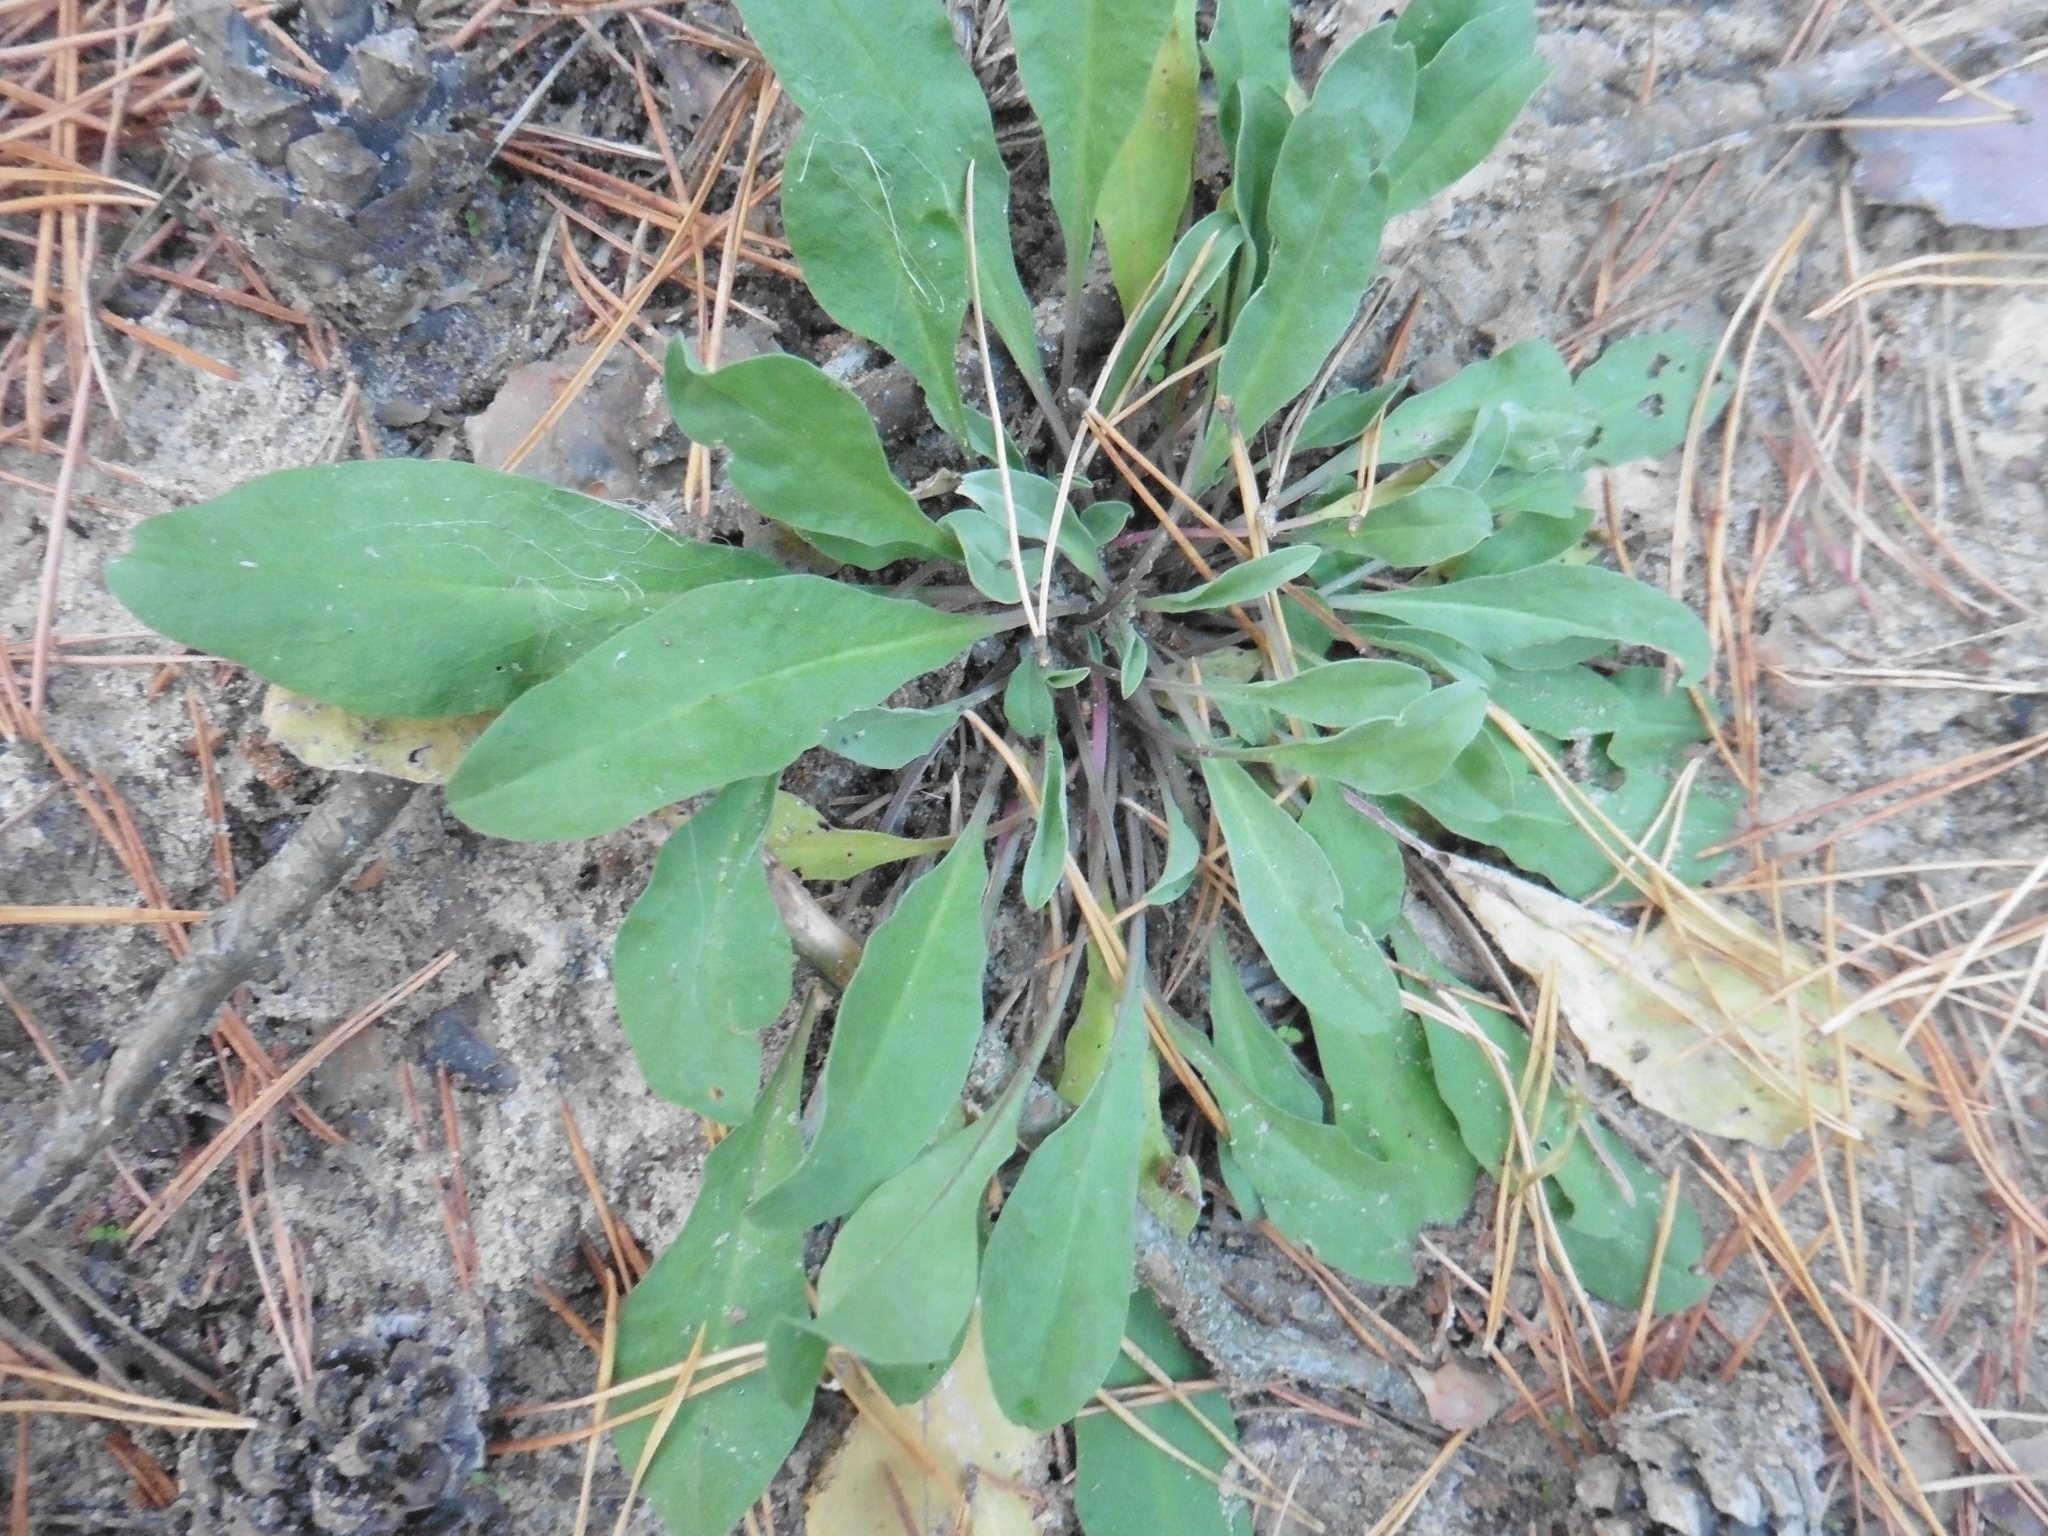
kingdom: Plantae
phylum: Tracheophyta
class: Magnoliopsida
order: Brassicales
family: Brassicaceae
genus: Berteroa
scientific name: Berteroa incana
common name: Hoary alison
